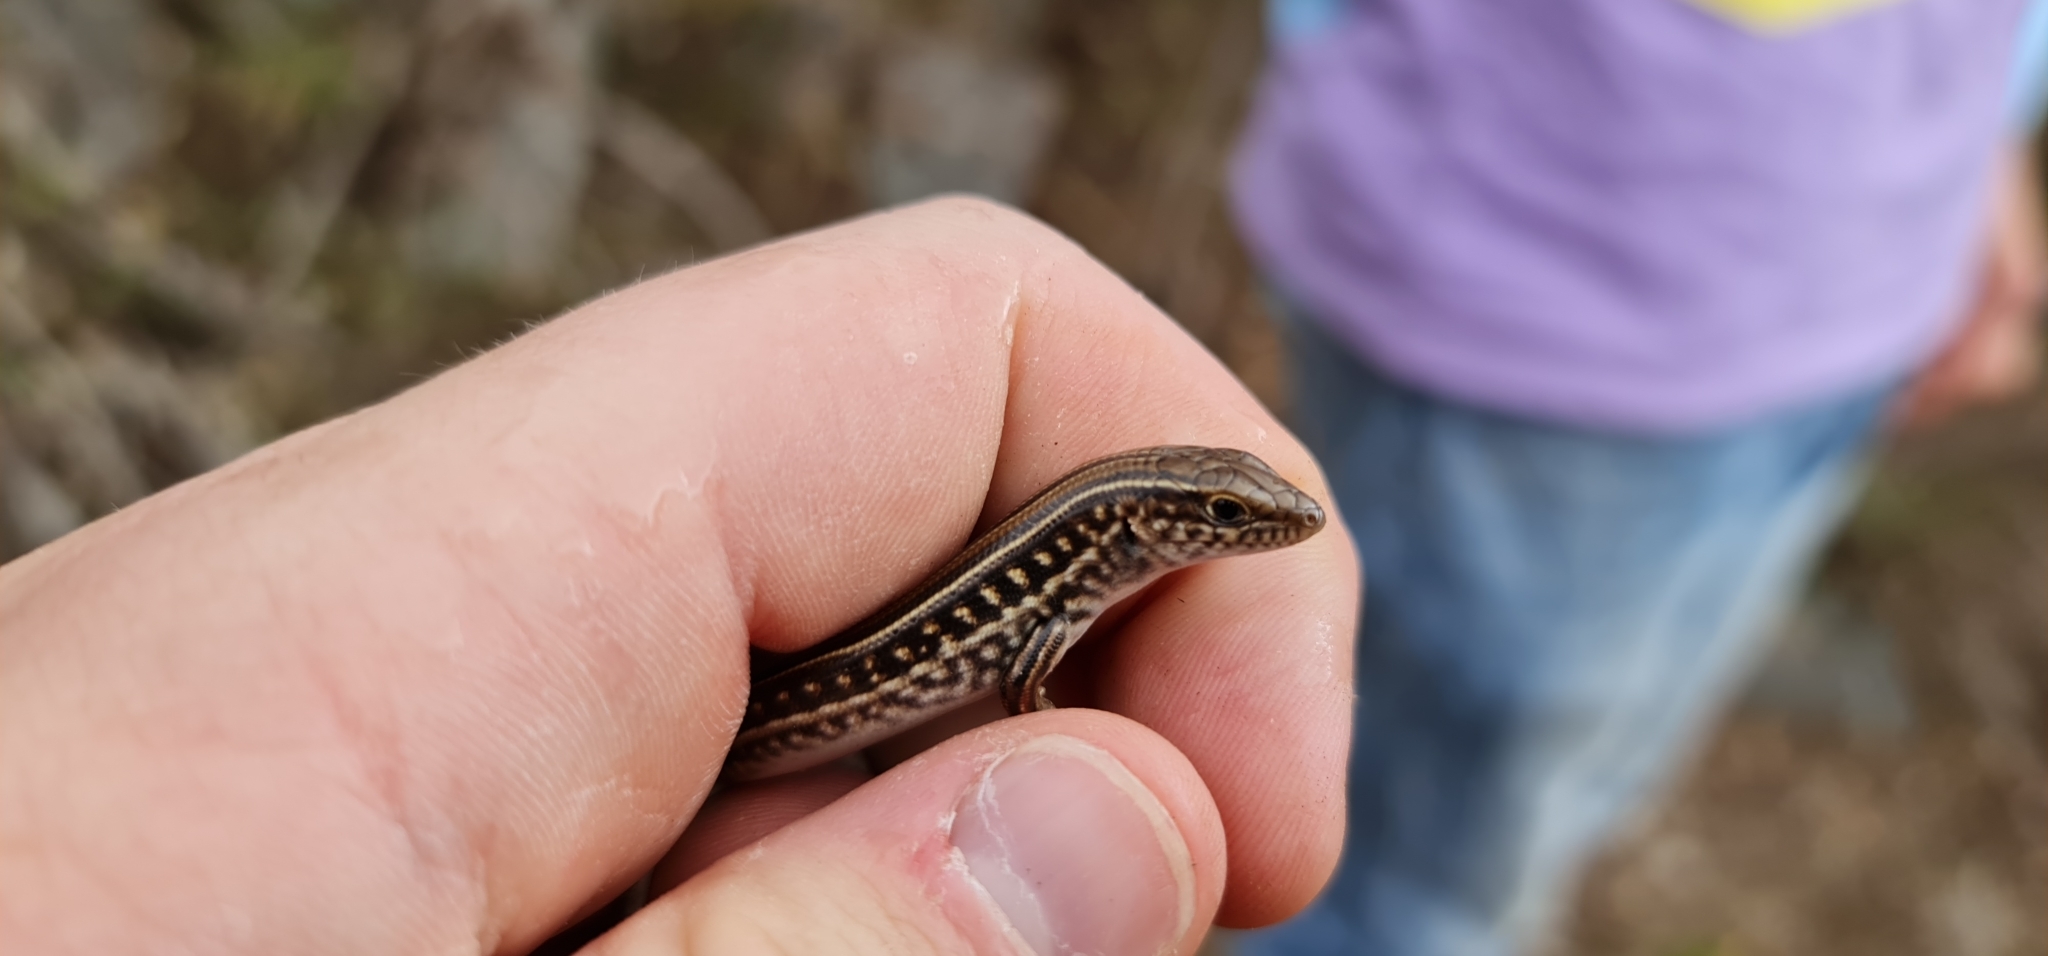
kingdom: Animalia
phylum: Chordata
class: Squamata
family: Scincidae
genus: Ctenotus
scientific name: Ctenotus robustus
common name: Robust ctenotus
